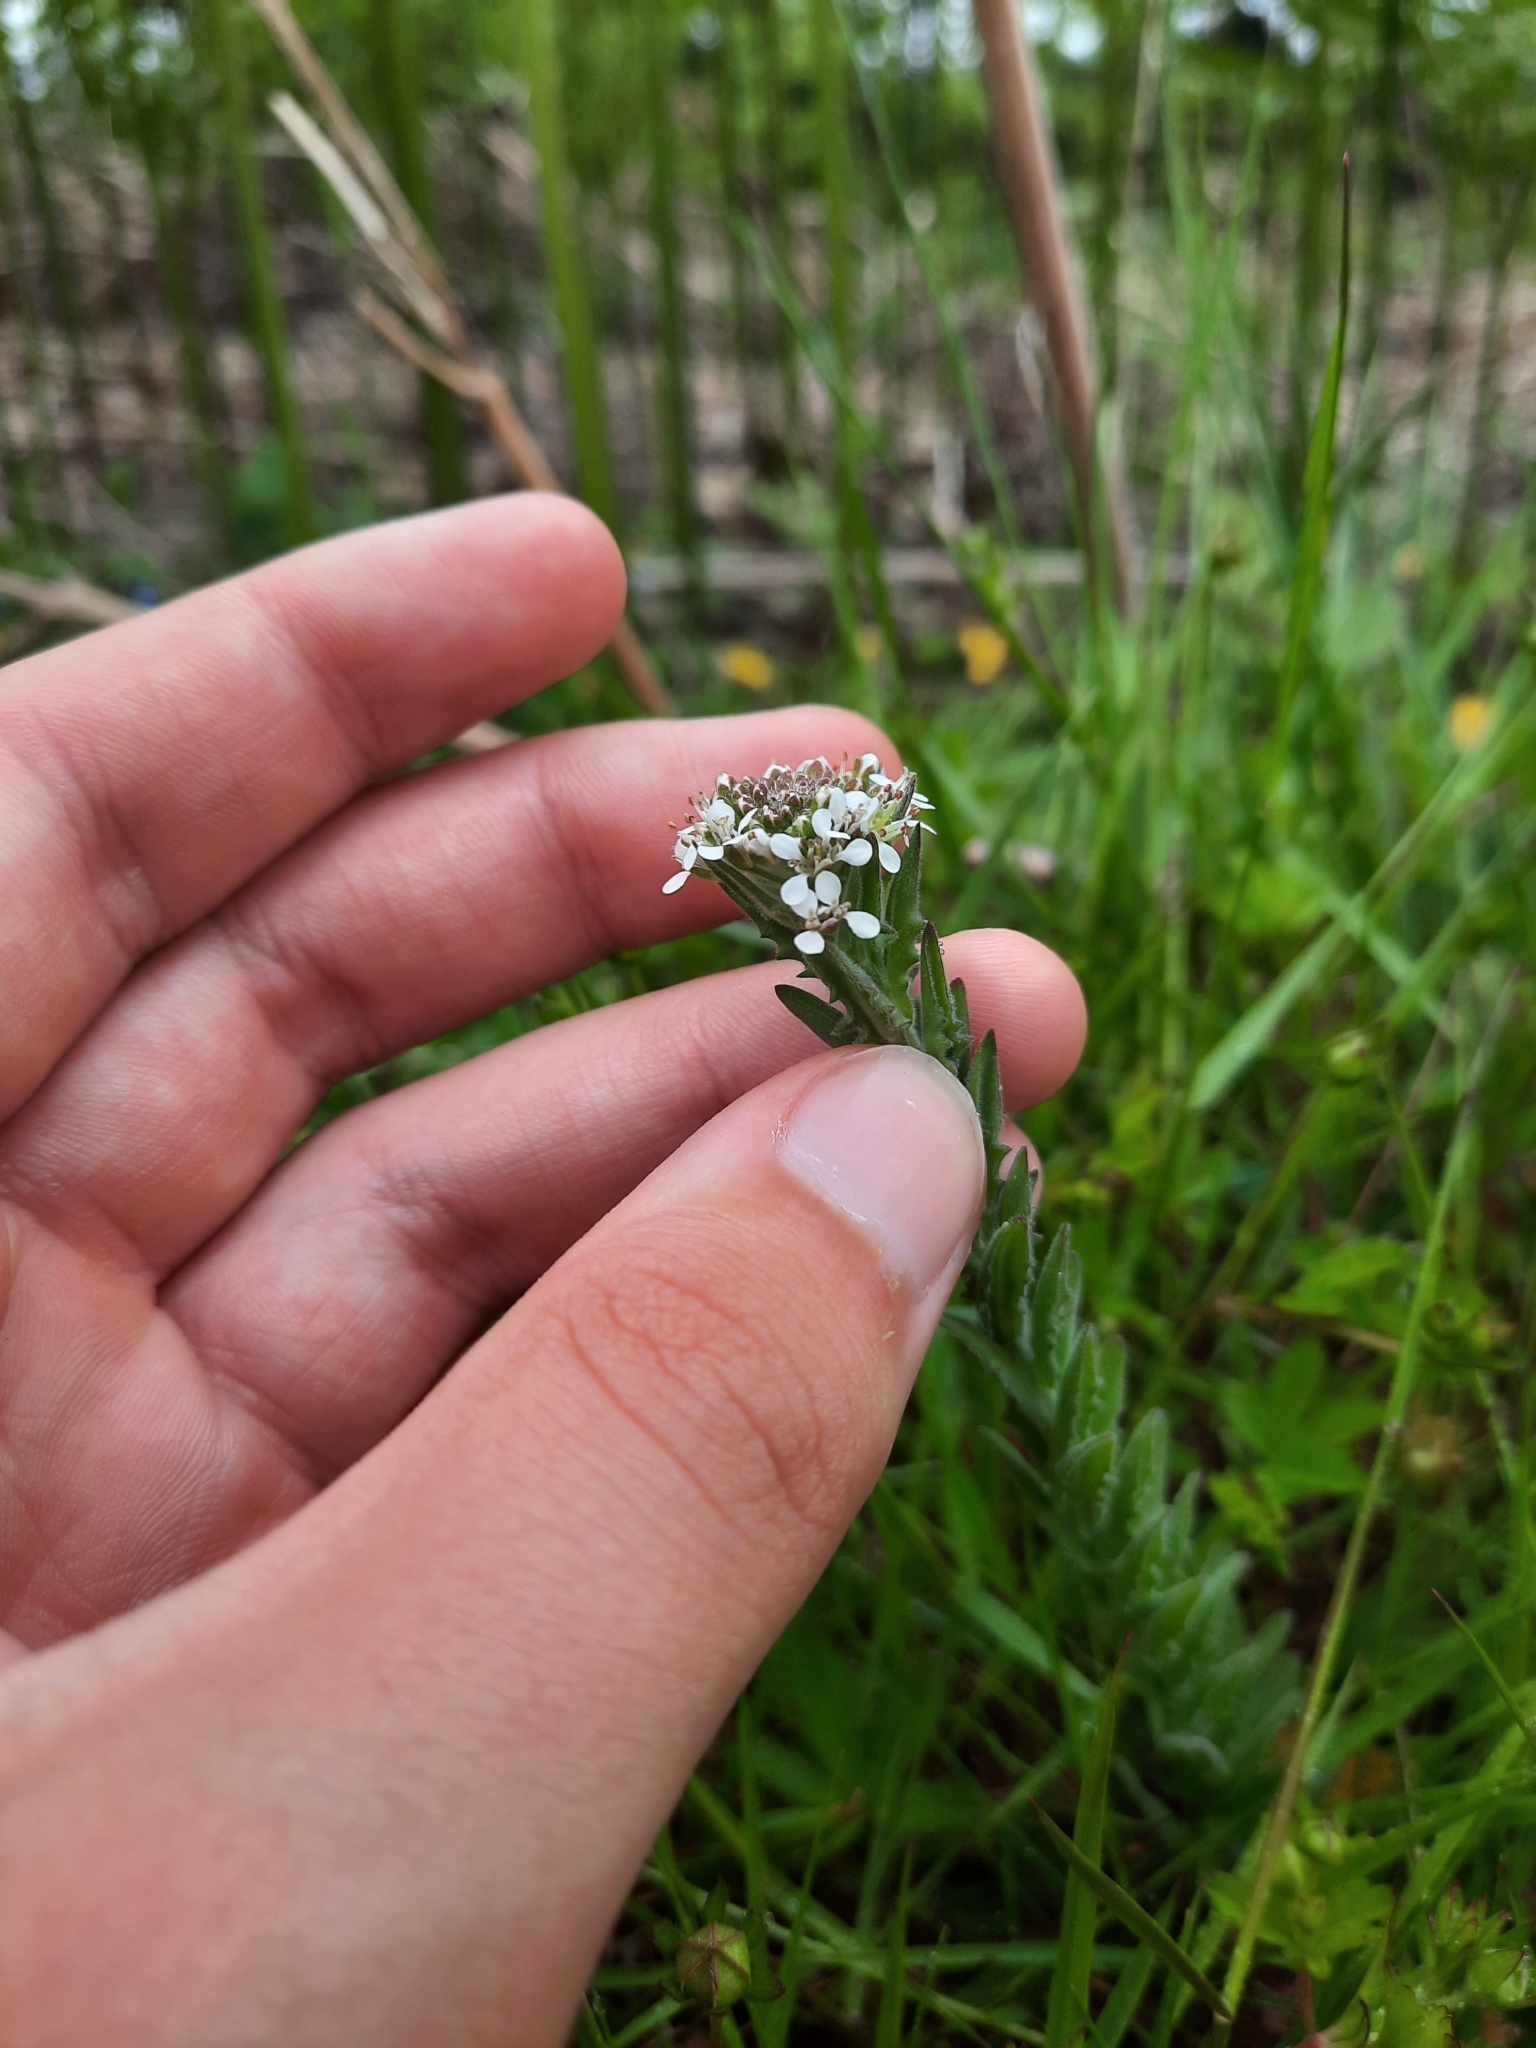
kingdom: Plantae
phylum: Tracheophyta
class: Magnoliopsida
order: Brassicales
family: Brassicaceae
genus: Lepidium
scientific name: Lepidium heterophyllum
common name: Smith's pepperwort
